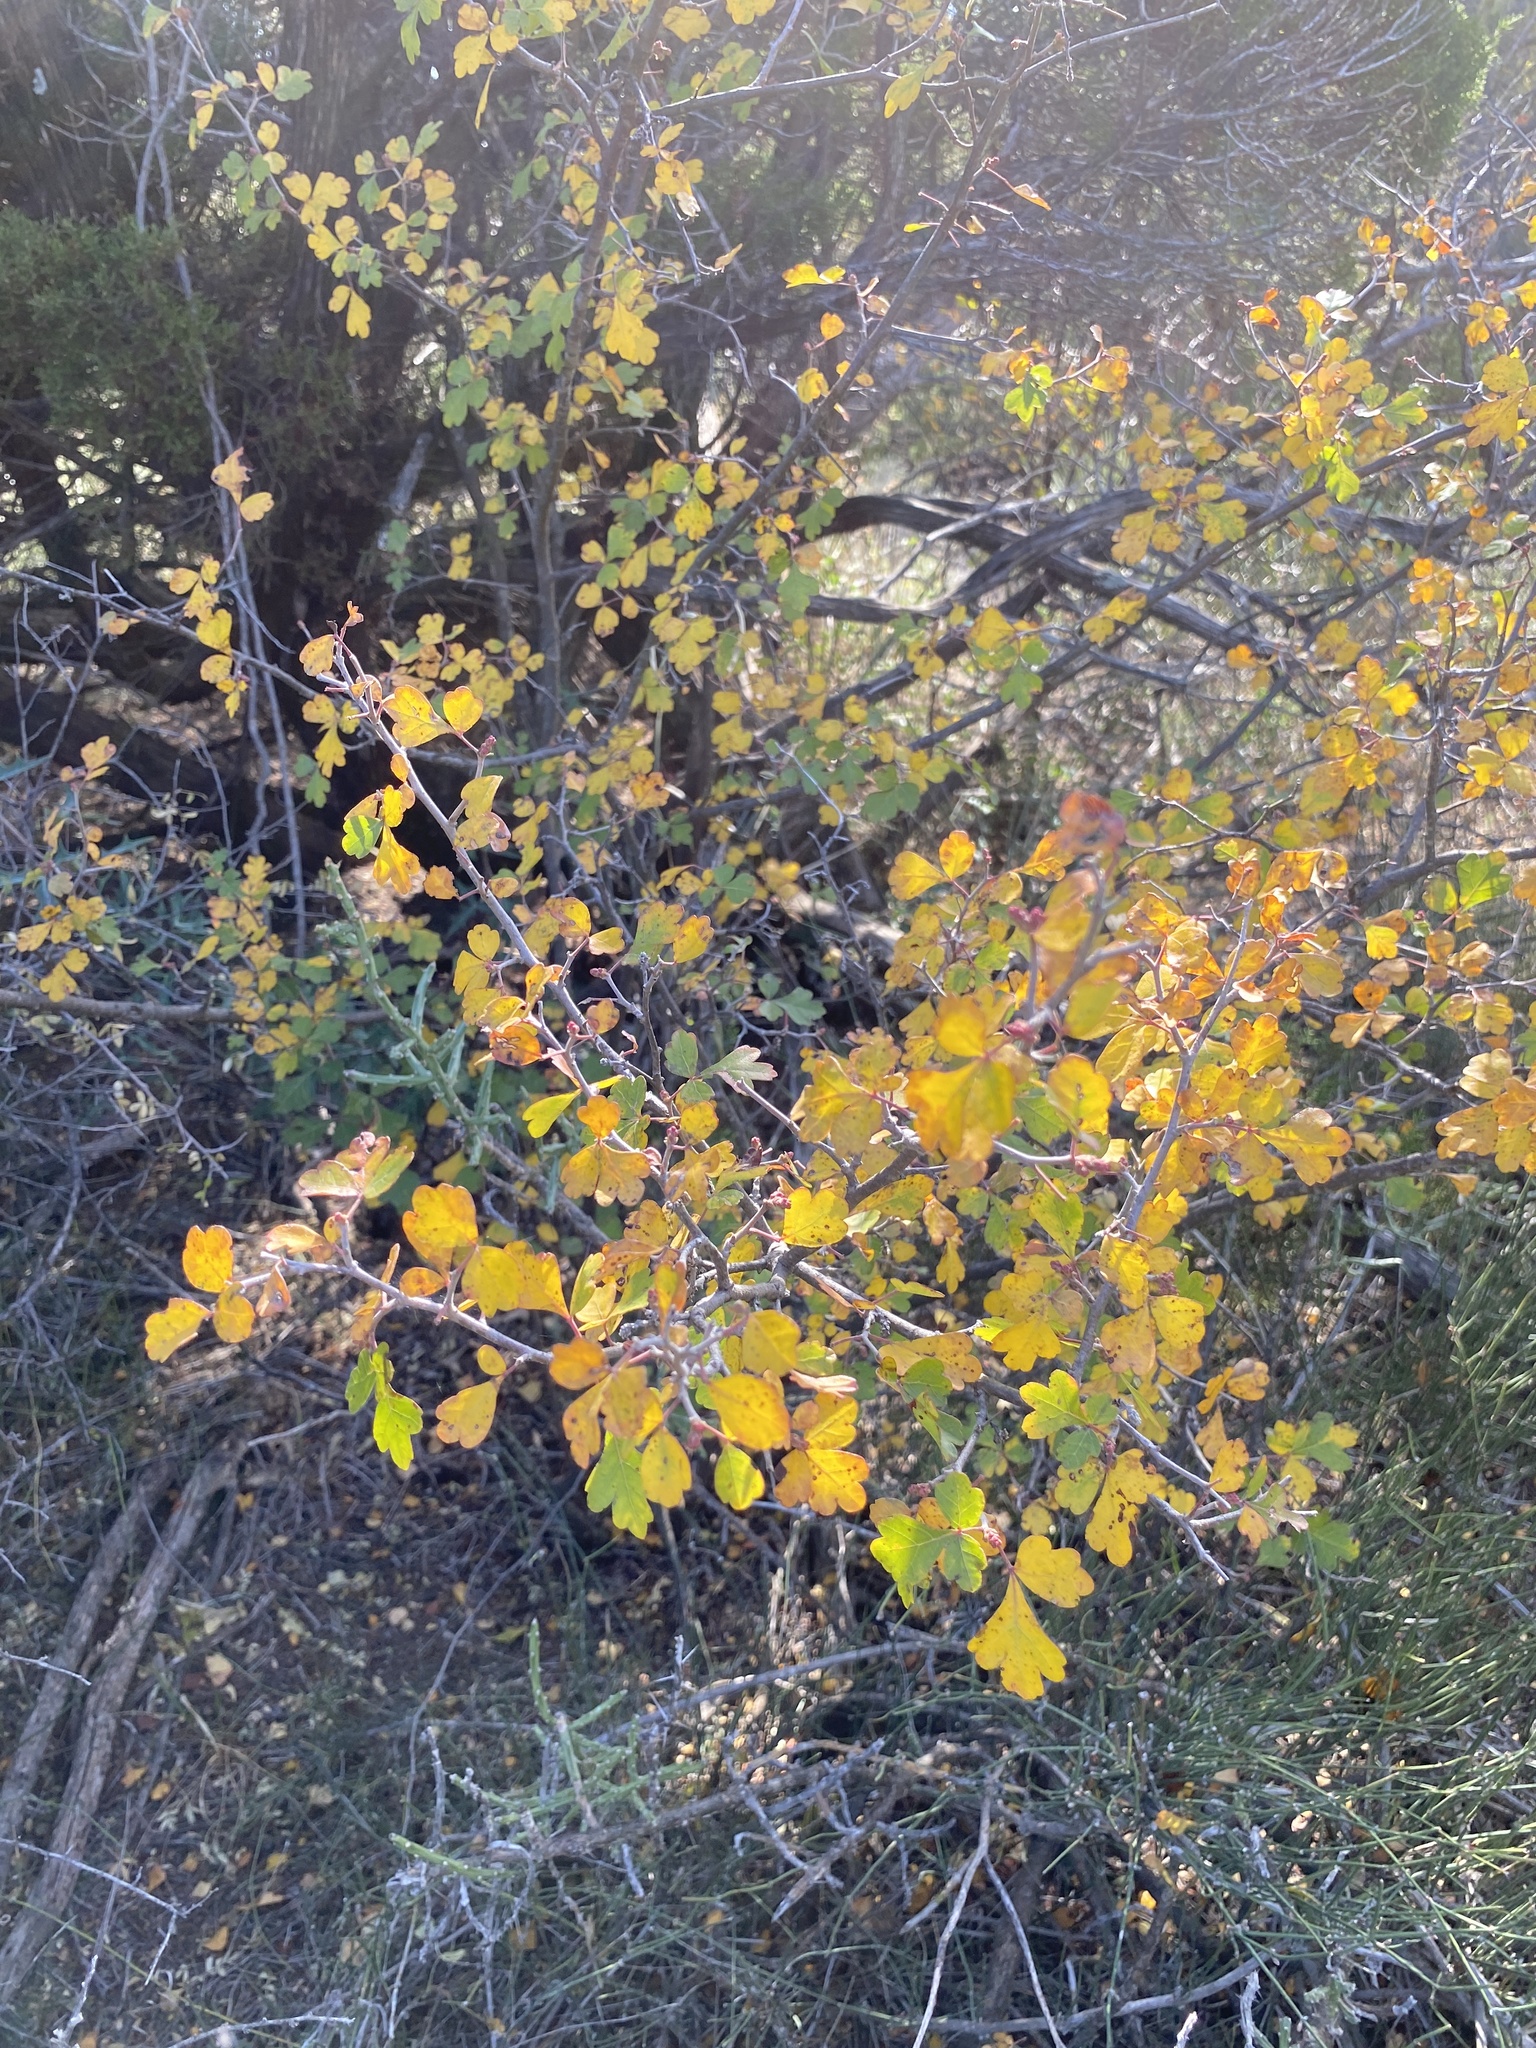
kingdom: Plantae
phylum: Tracheophyta
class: Magnoliopsida
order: Sapindales
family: Anacardiaceae
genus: Rhus
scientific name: Rhus aromatica
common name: Aromatic sumac
